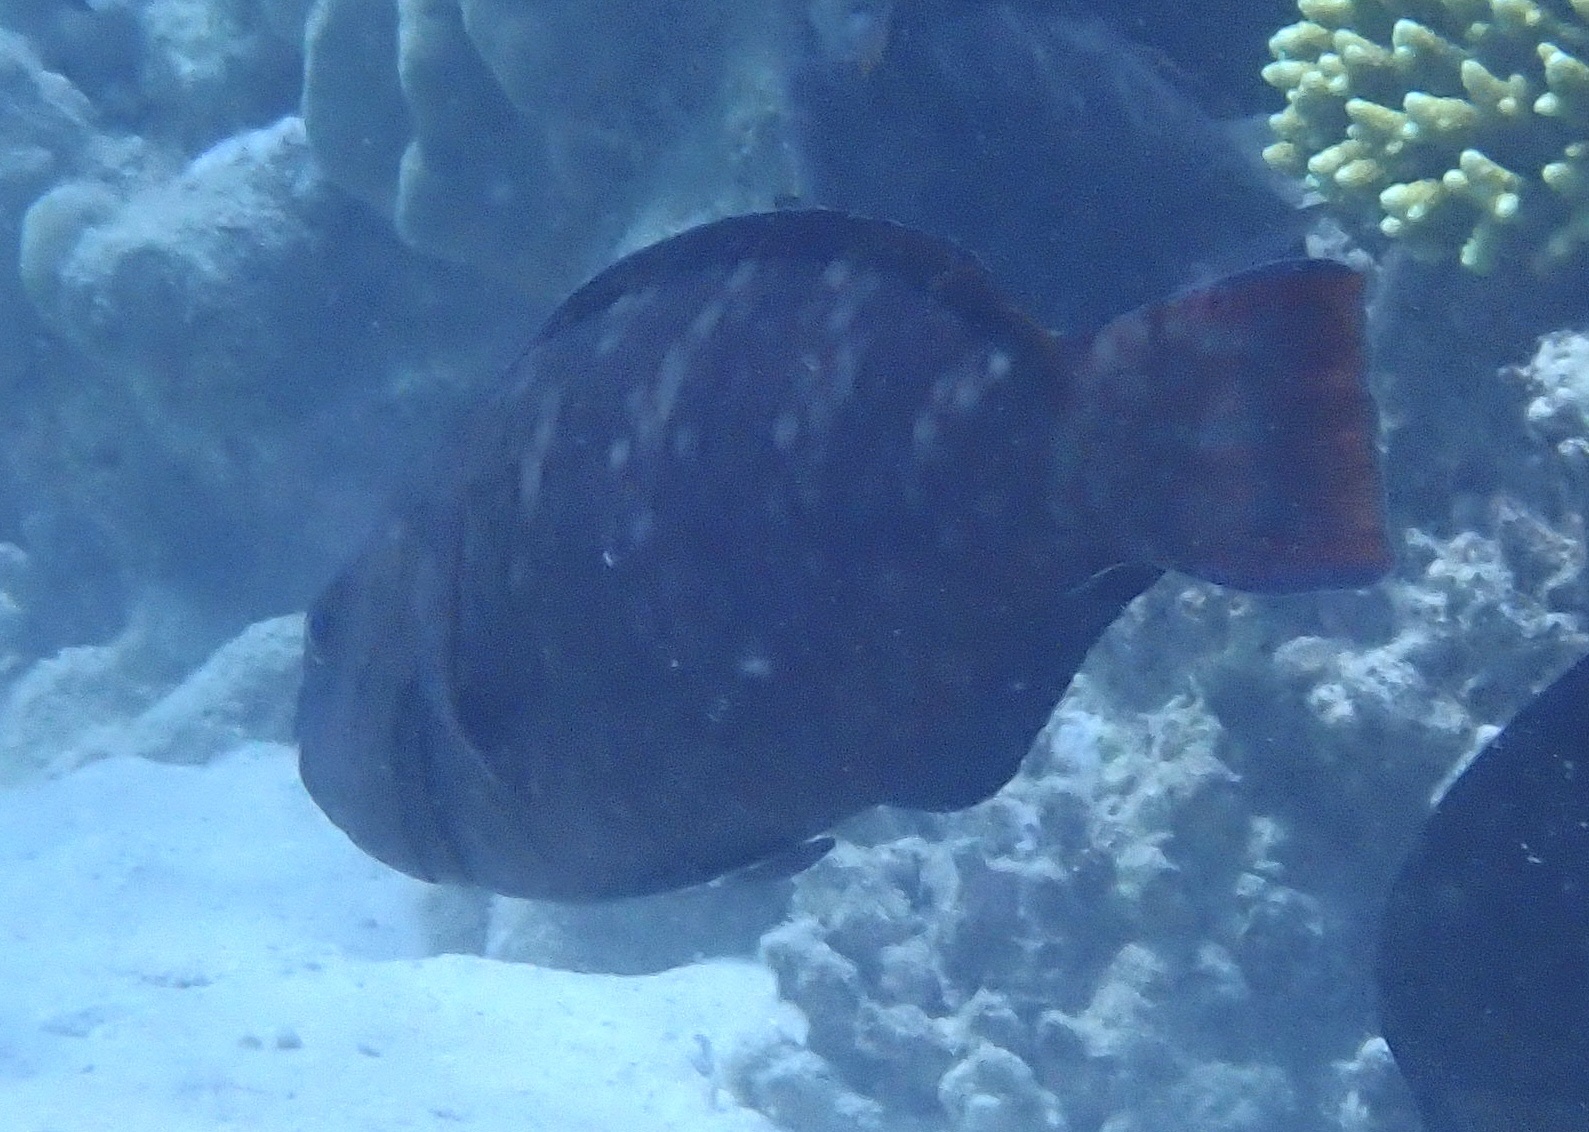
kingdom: Animalia
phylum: Chordata
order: Perciformes
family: Scaridae
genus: Scarus
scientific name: Scarus fuscopurpureus
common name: Purple-brown parrotfish
